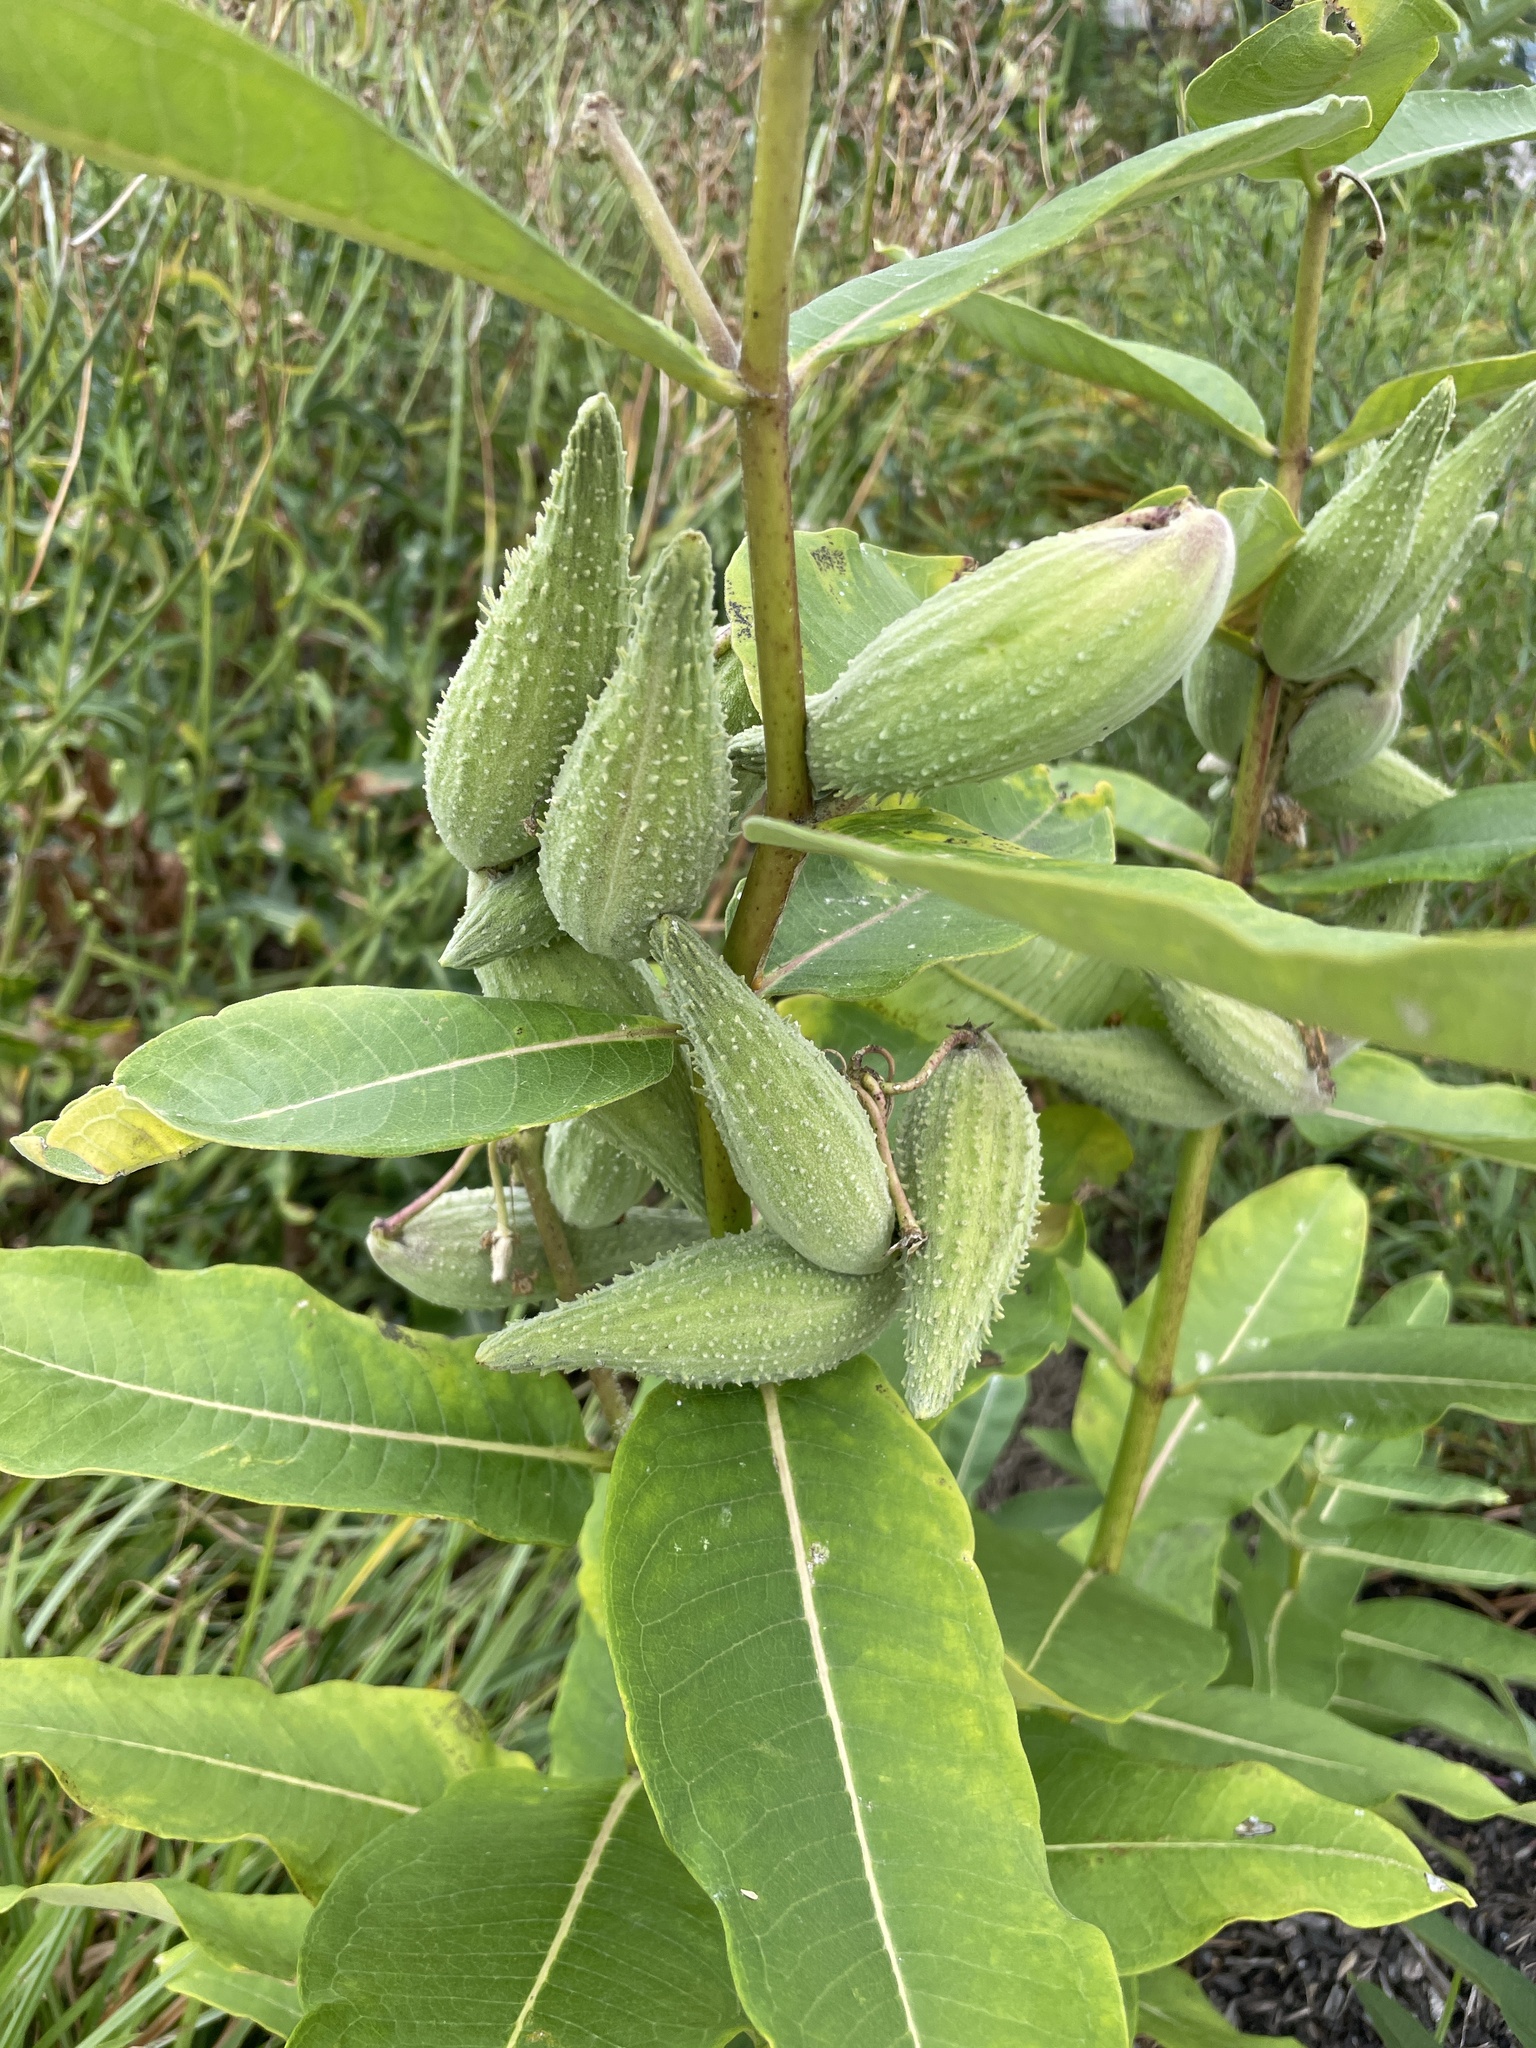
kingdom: Plantae
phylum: Tracheophyta
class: Magnoliopsida
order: Gentianales
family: Apocynaceae
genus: Asclepias
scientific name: Asclepias syriaca
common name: Common milkweed
